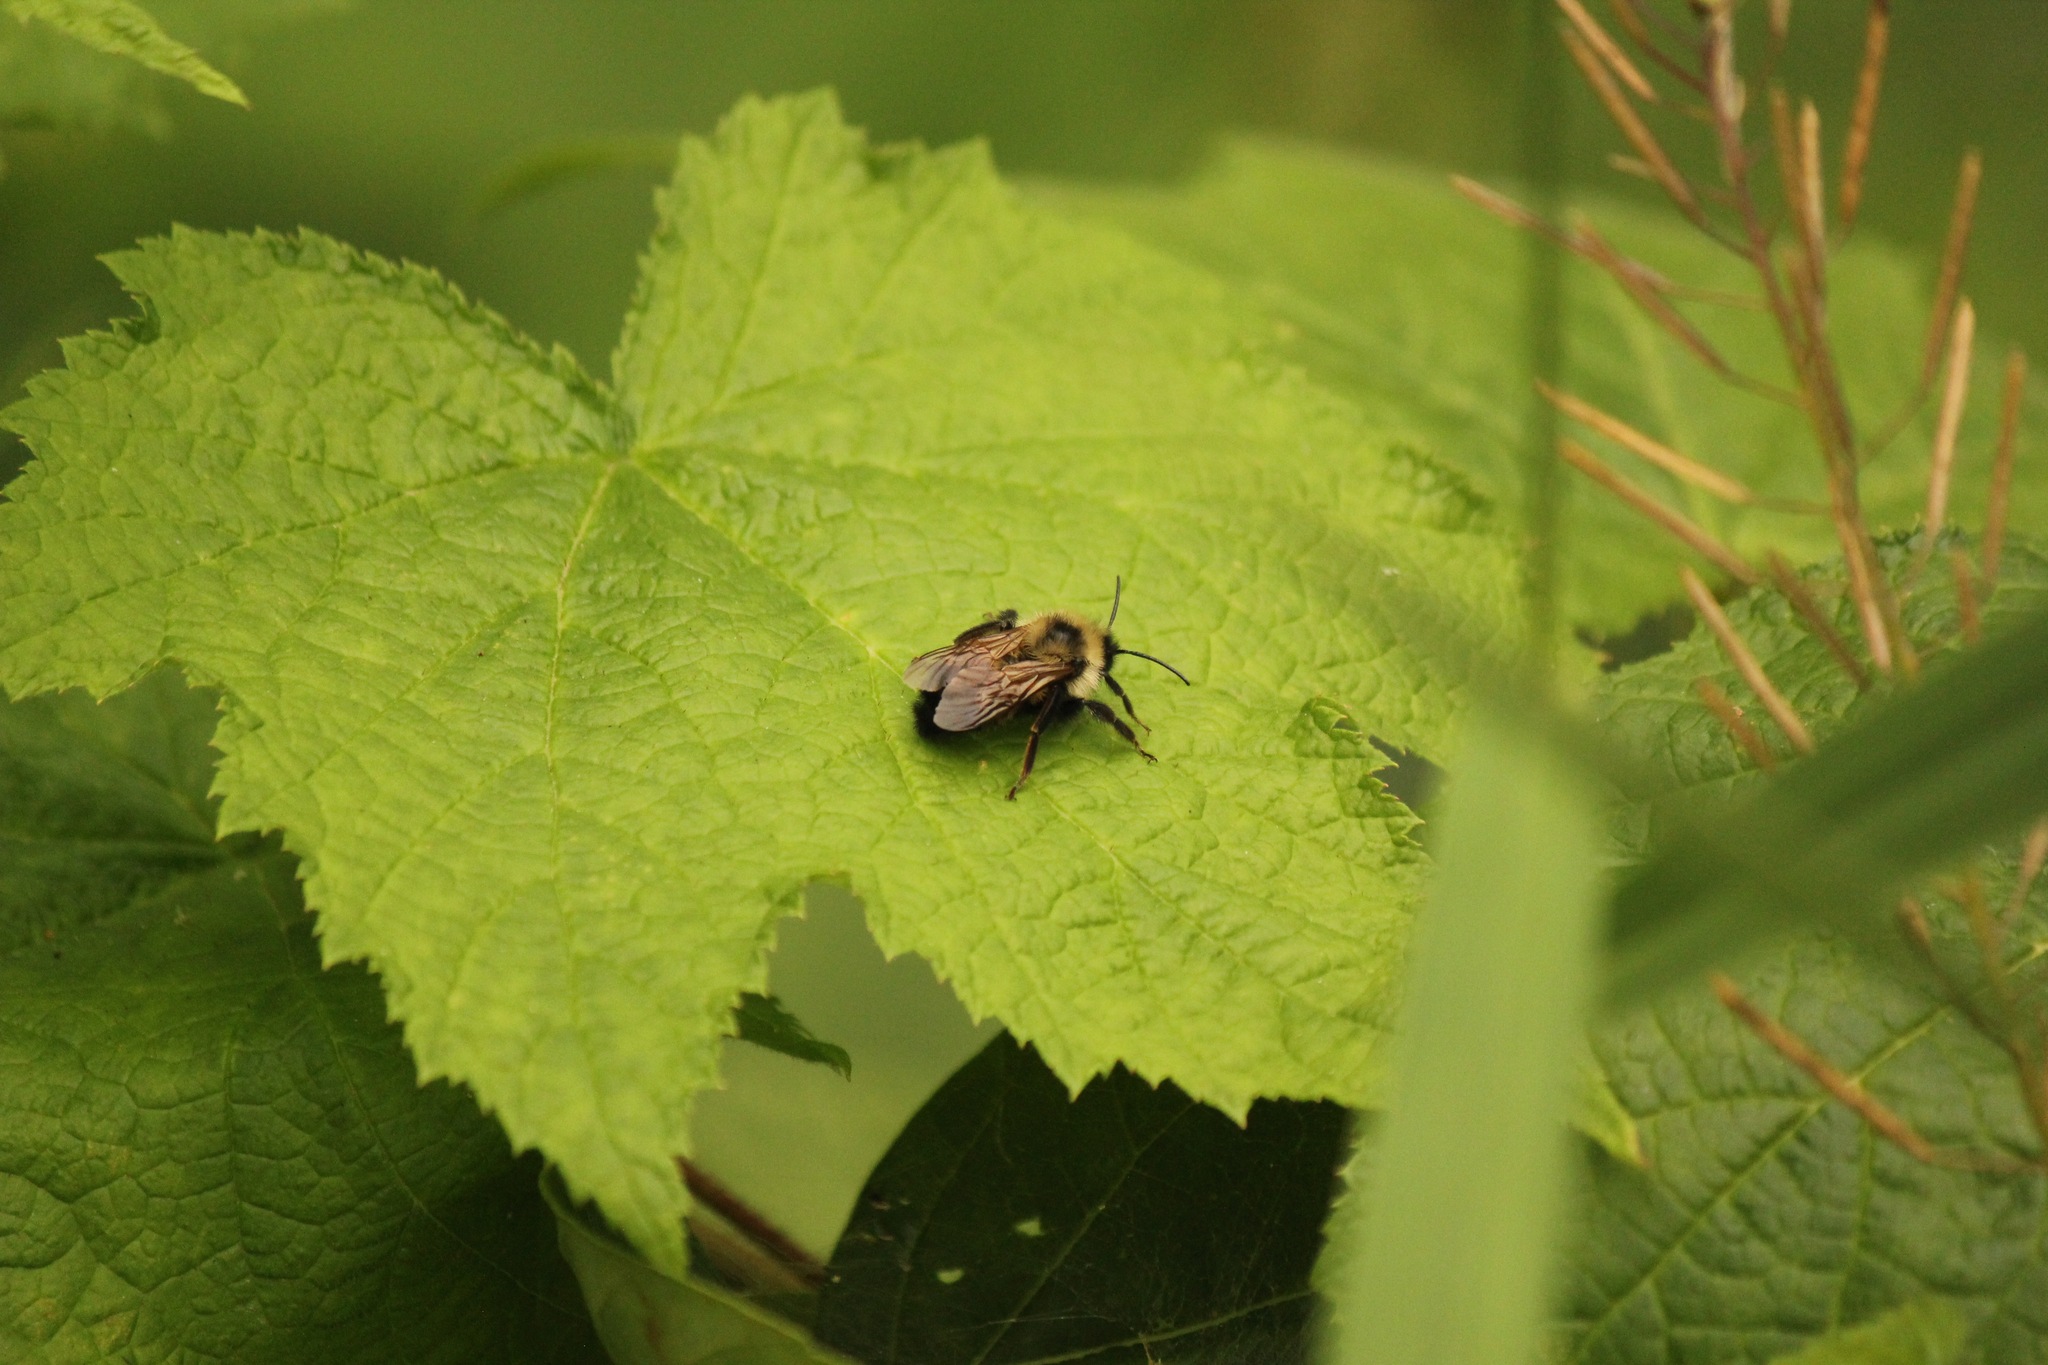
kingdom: Animalia
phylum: Arthropoda
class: Insecta
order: Hymenoptera
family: Apidae
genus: Bombus
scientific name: Bombus citrinus
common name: Lemon cuckoo bumble bee
